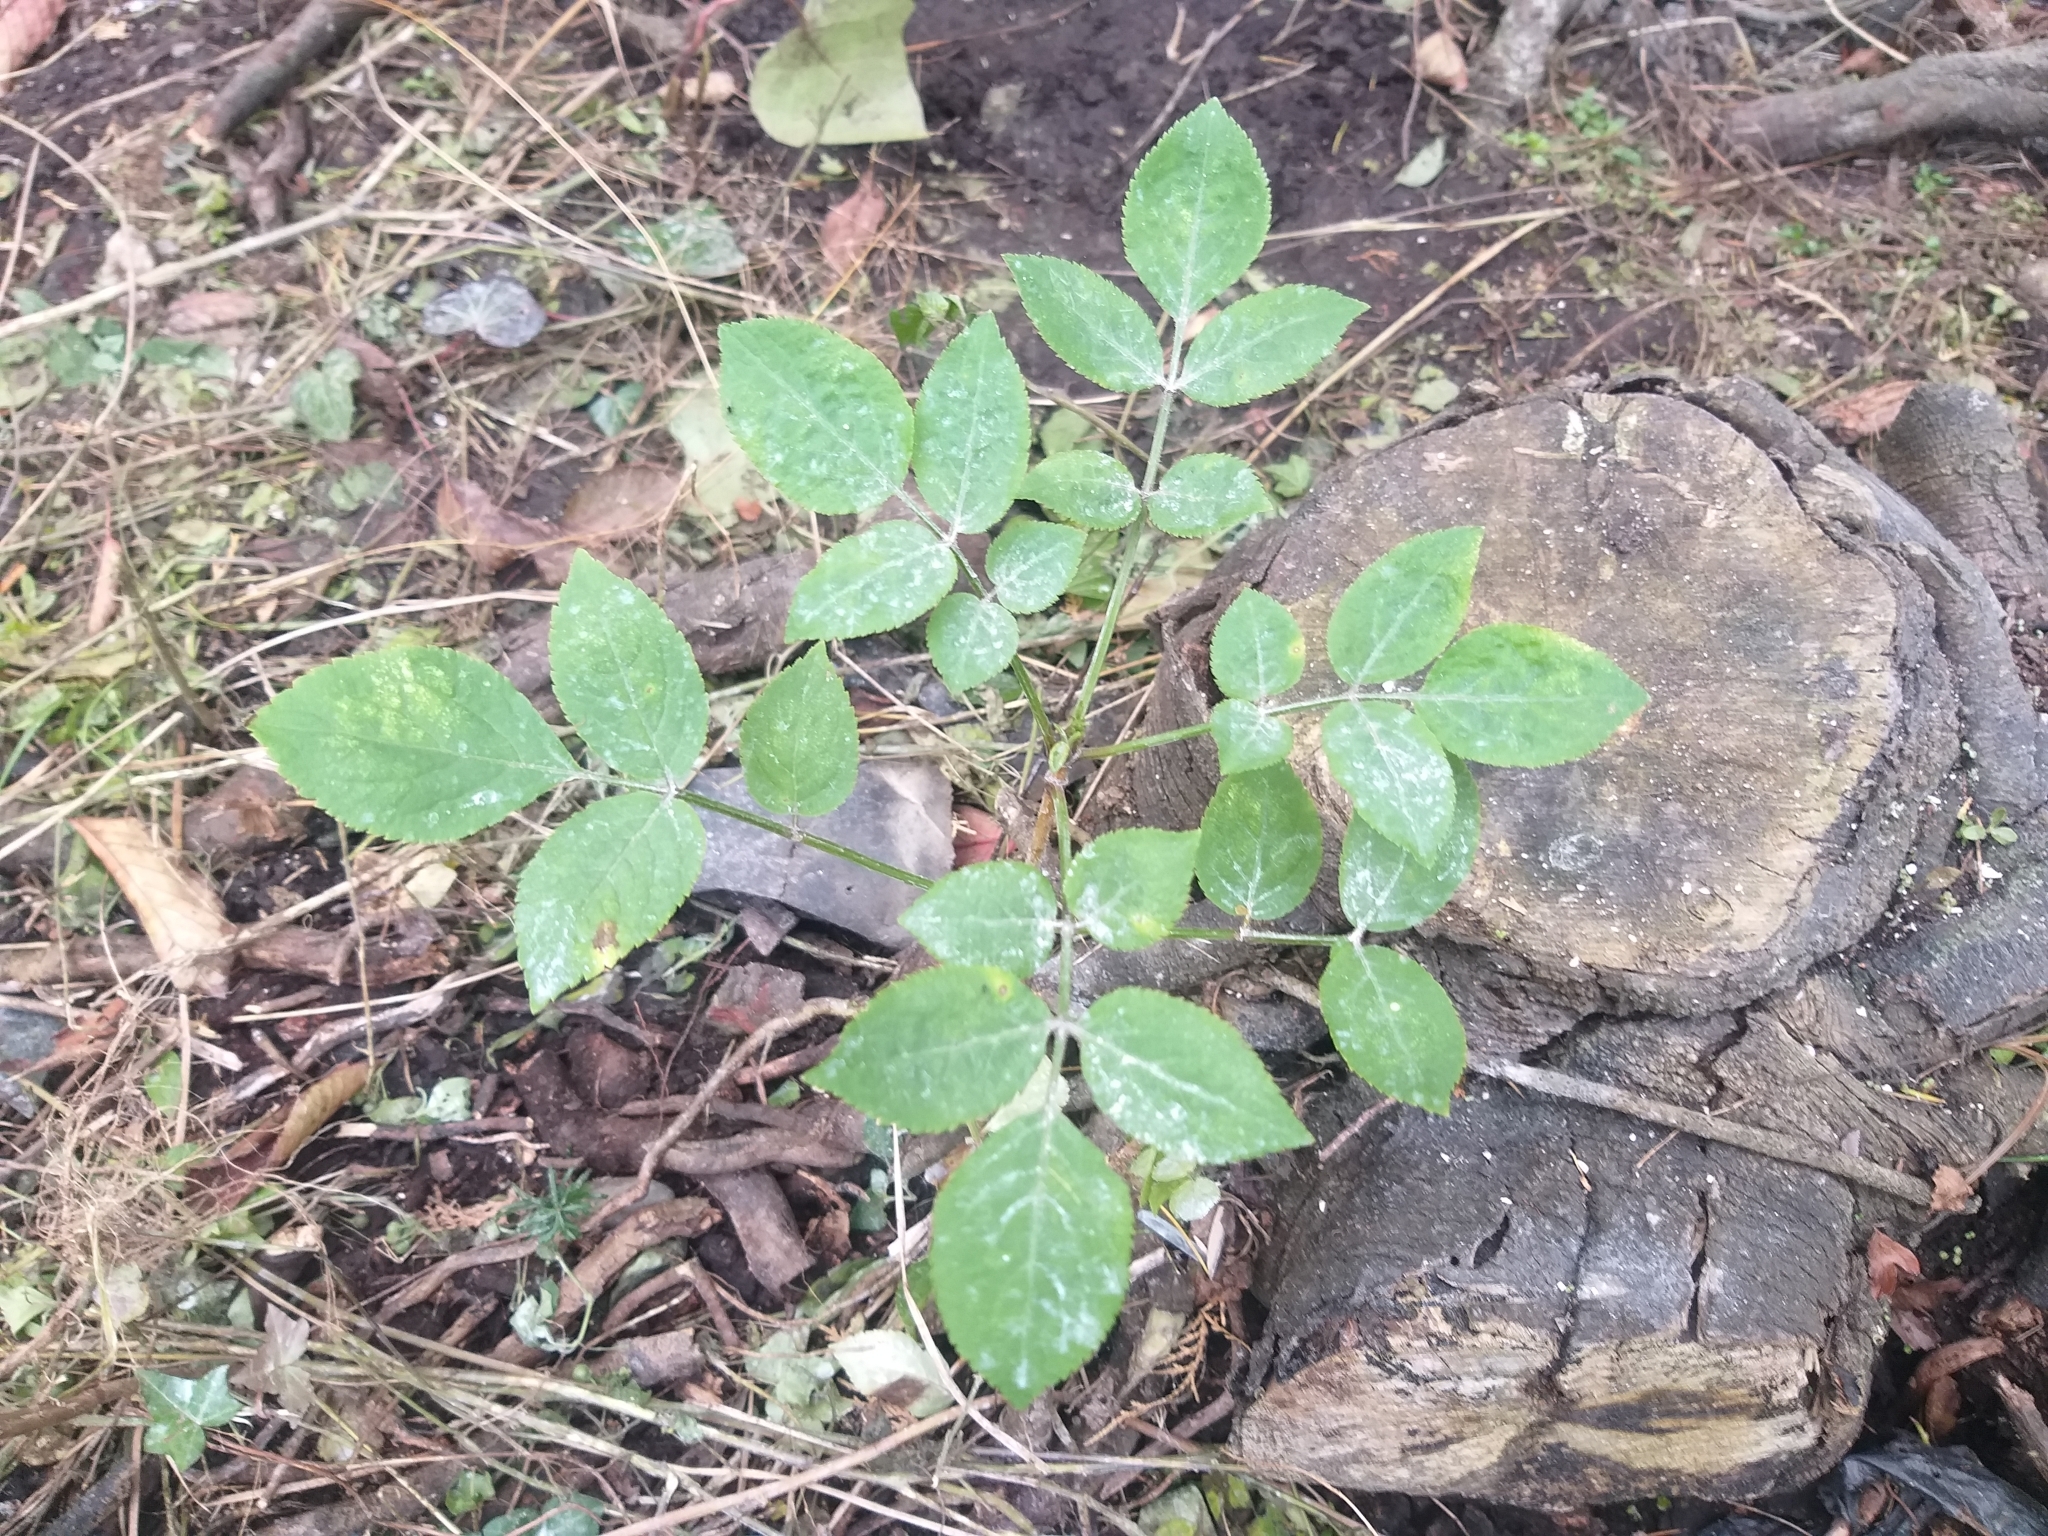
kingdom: Plantae
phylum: Tracheophyta
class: Magnoliopsida
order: Dipsacales
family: Viburnaceae
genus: Sambucus
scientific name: Sambucus nigra
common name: Elder
